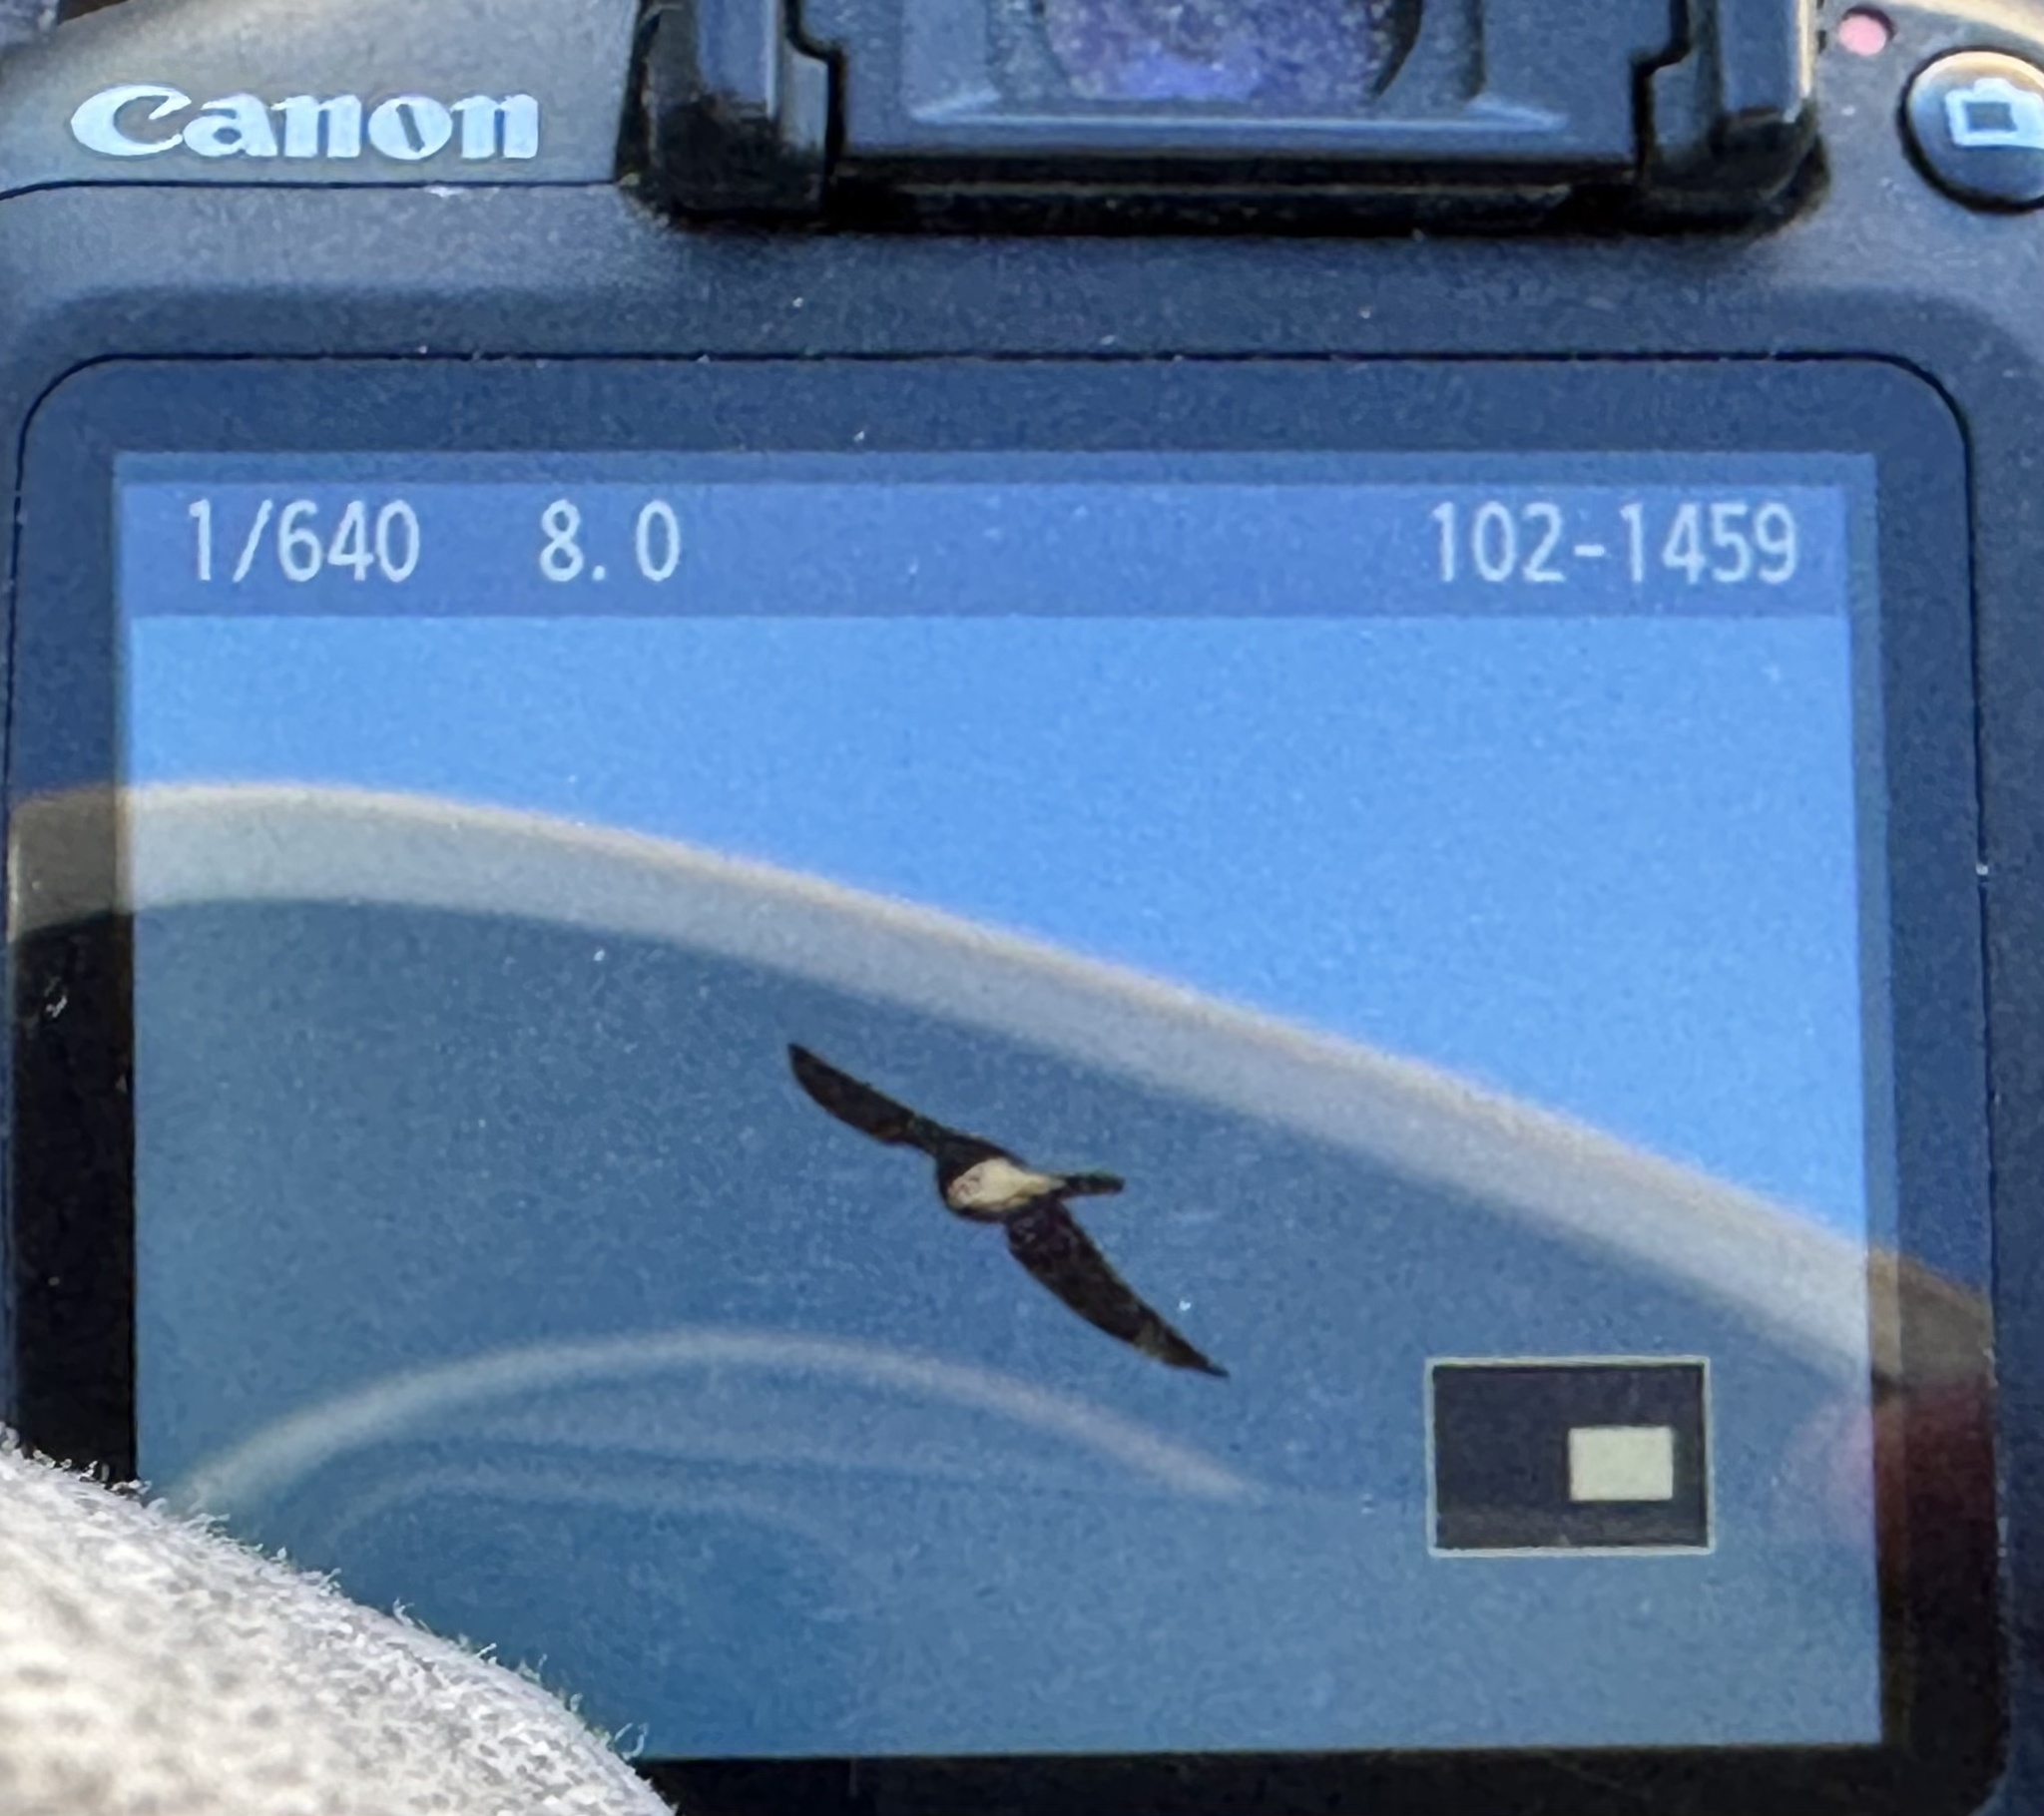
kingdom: Animalia
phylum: Chordata
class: Aves
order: Falconiformes
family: Falconidae
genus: Falco
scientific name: Falco sparverius
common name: American kestrel
